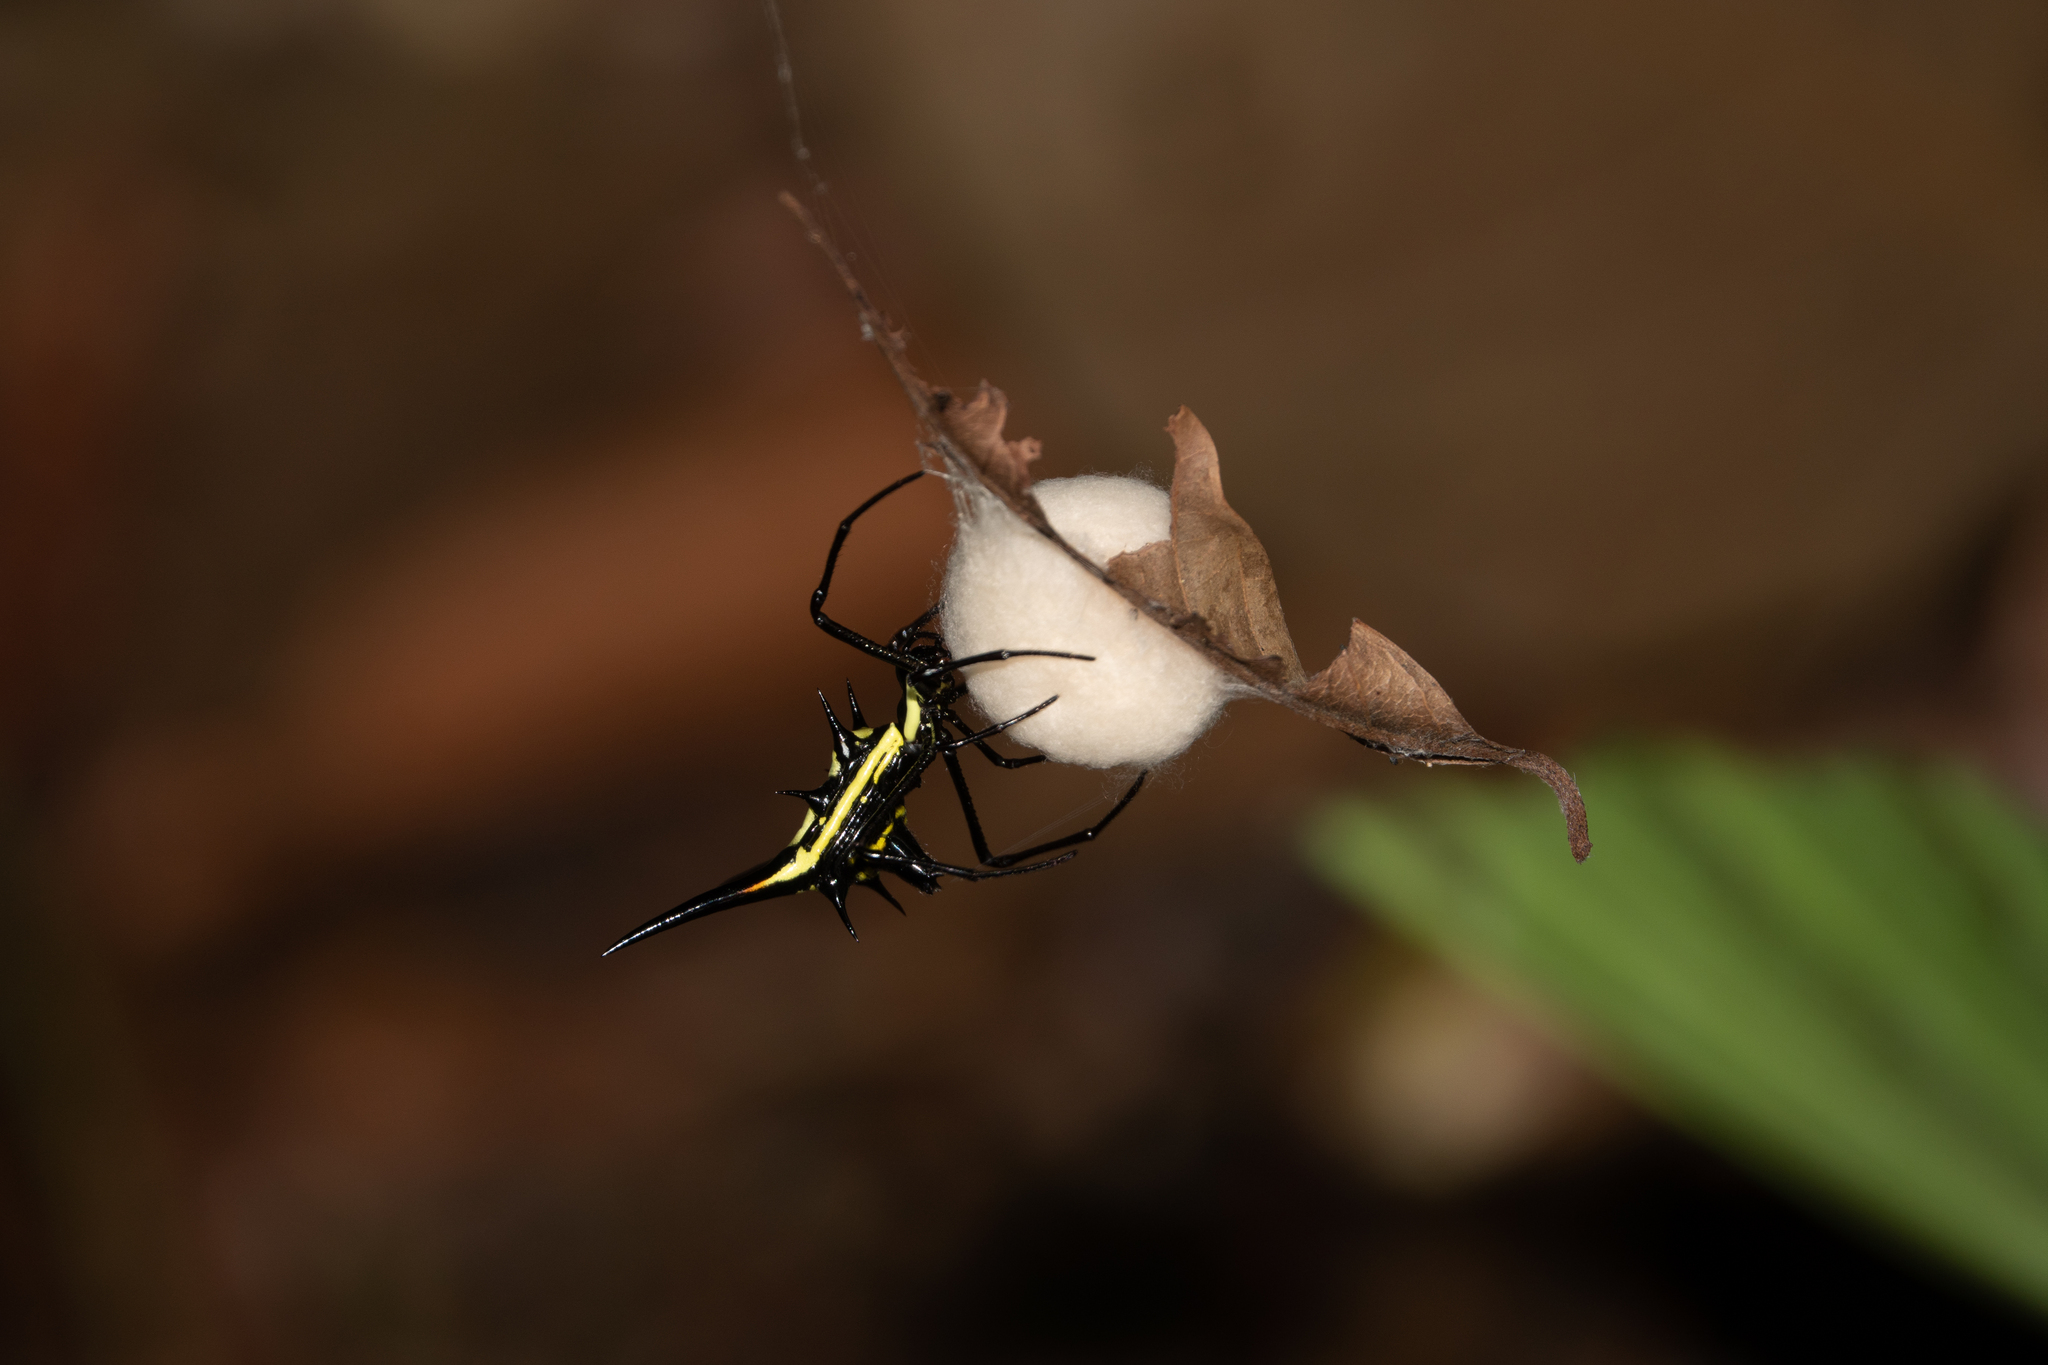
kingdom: Animalia
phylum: Arthropoda
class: Arachnida
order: Araneae
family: Araneidae
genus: Micrathena
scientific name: Micrathena schreibersi
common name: Orb weavers
